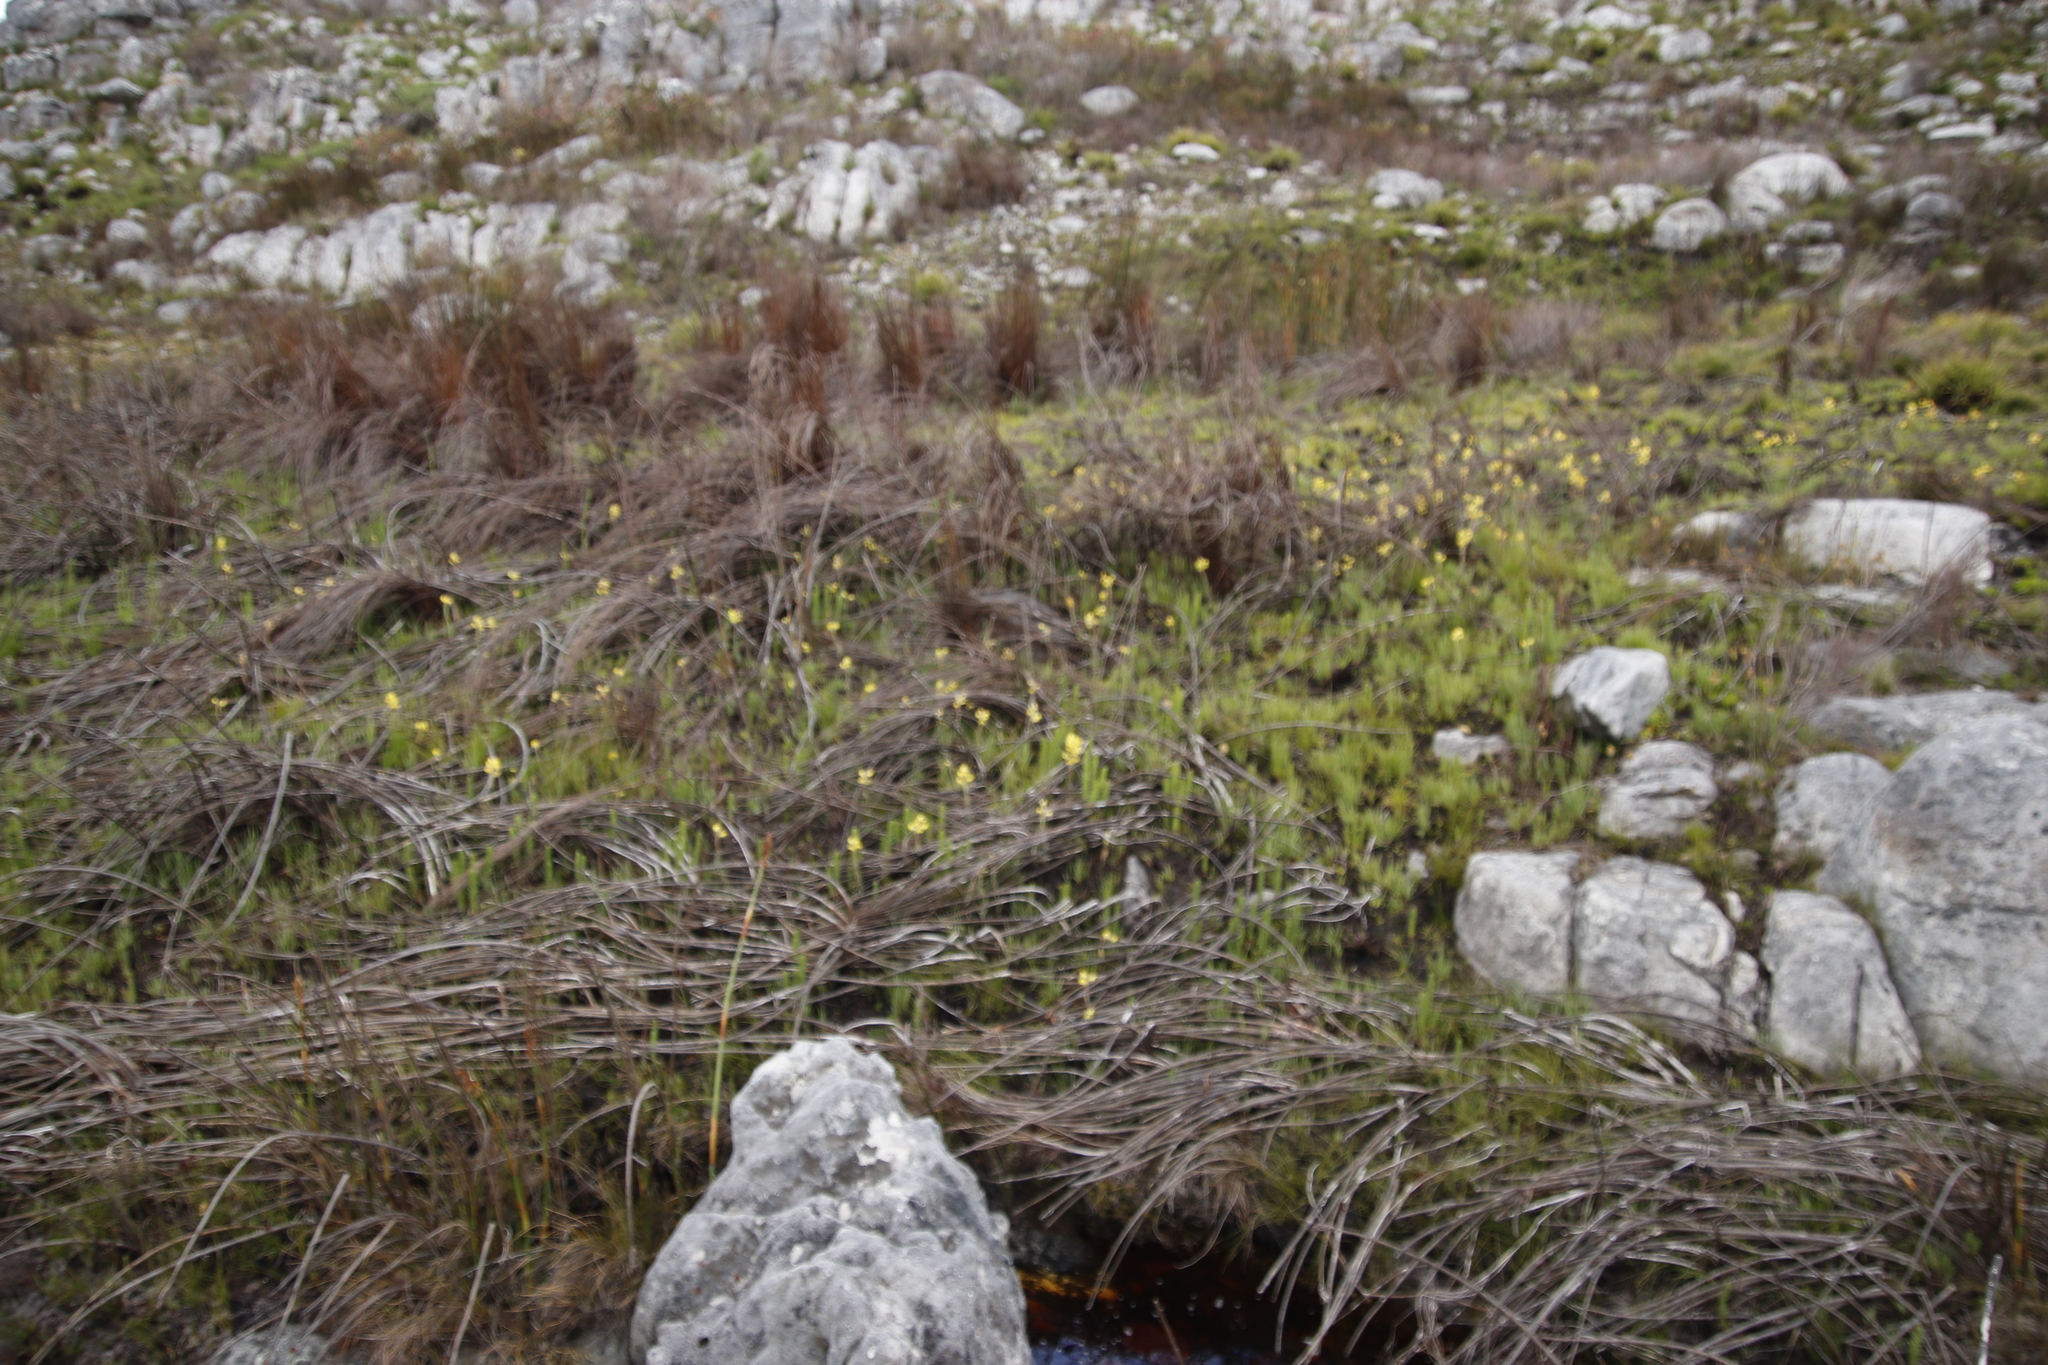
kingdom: Plantae
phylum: Tracheophyta
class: Liliopsida
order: Asparagales
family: Orchidaceae
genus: Pterygodium
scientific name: Pterygodium acutifolium
